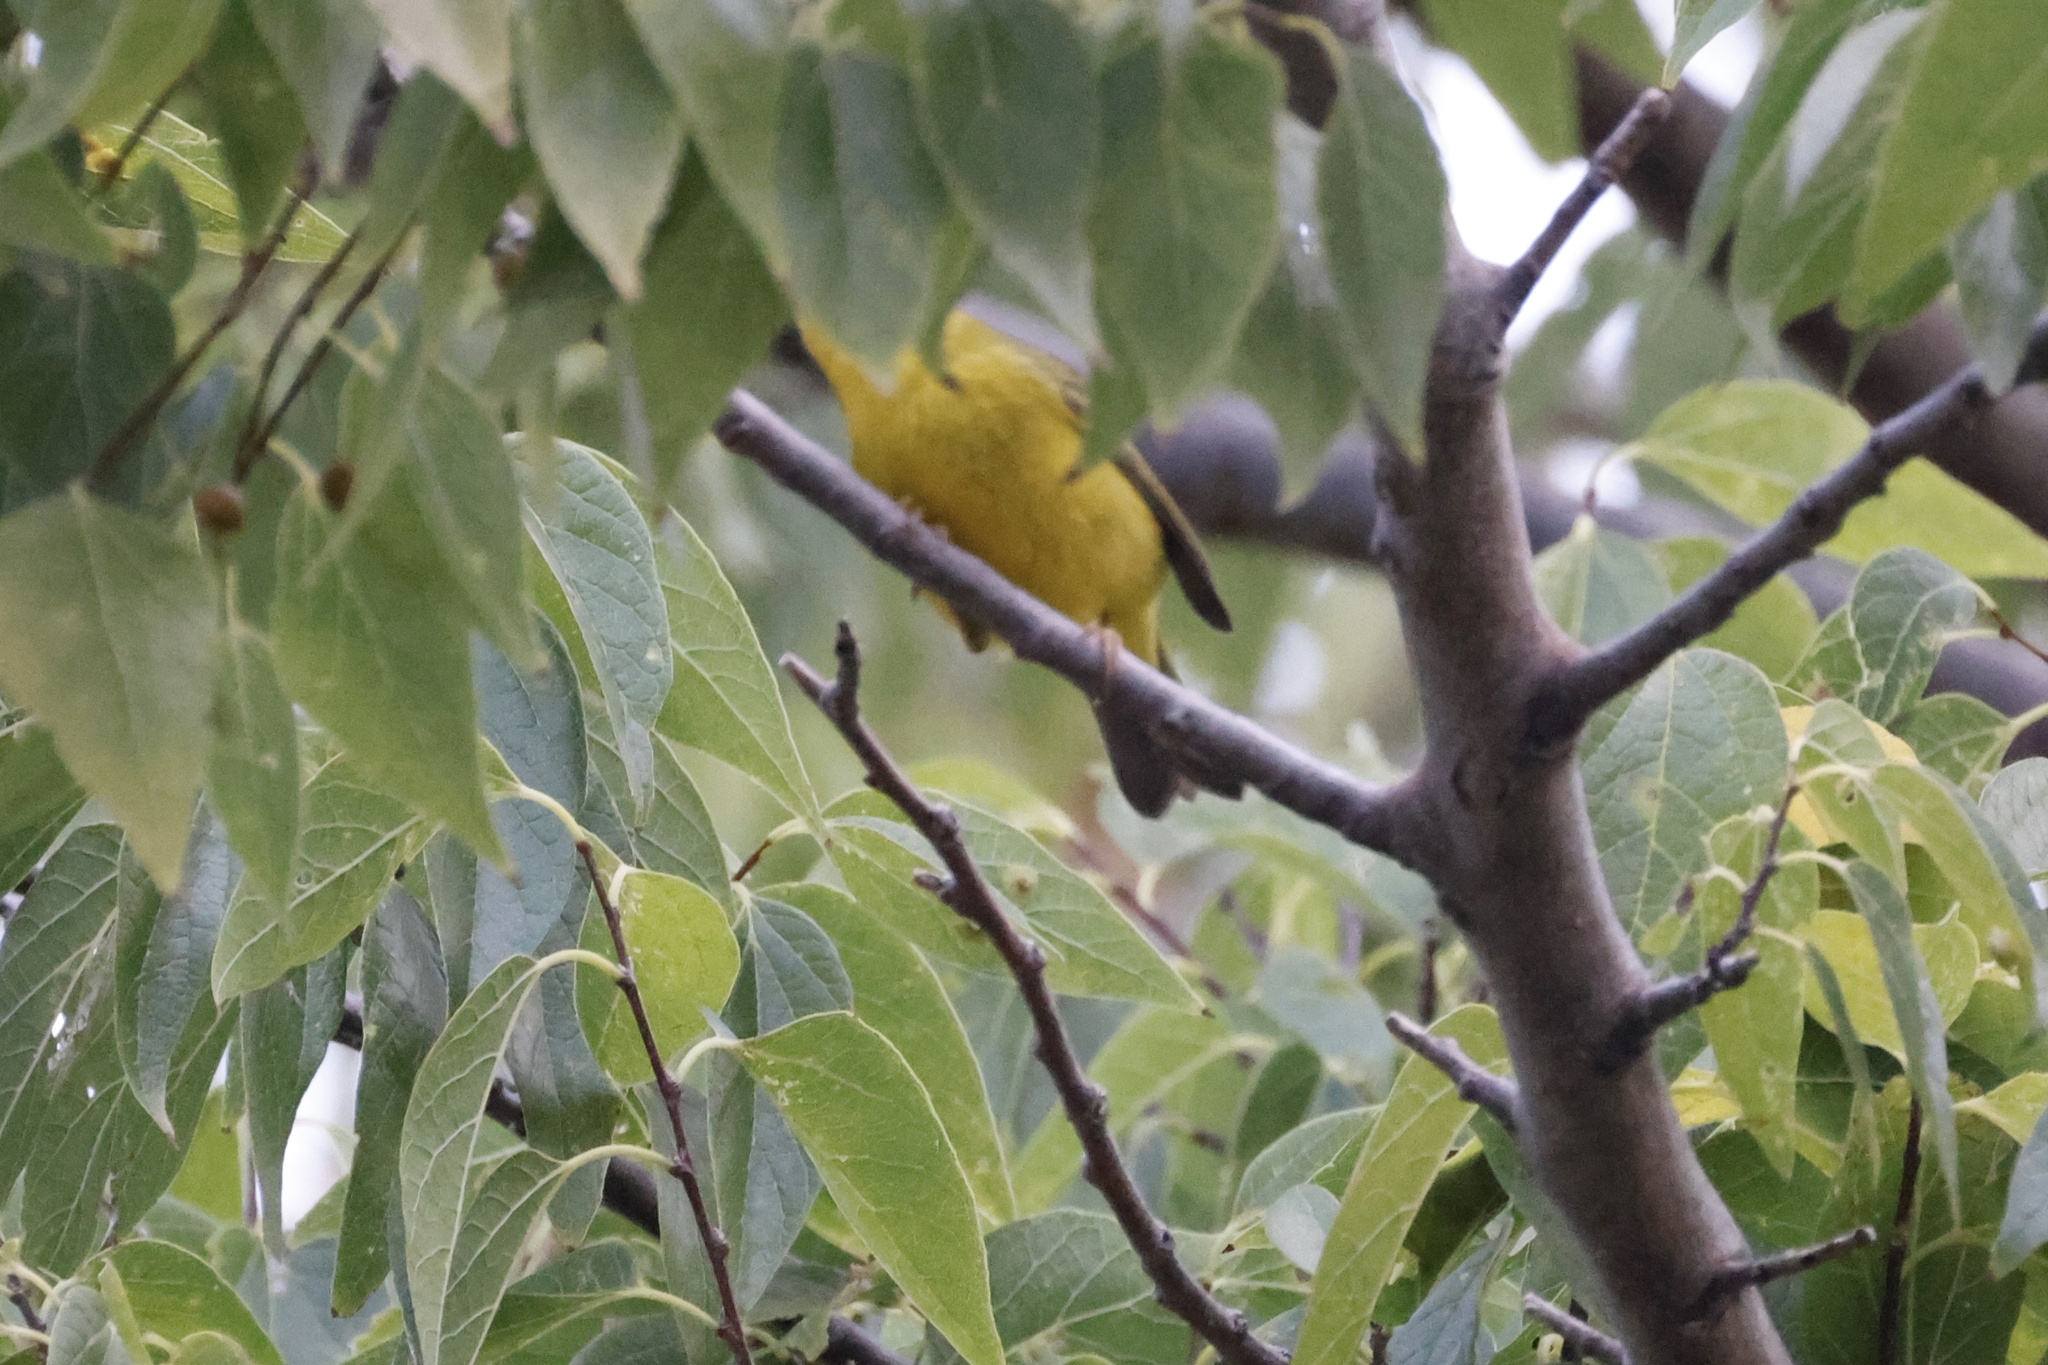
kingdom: Animalia
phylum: Chordata
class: Aves
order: Passeriformes
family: Parulidae
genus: Cardellina
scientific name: Cardellina pusilla
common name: Wilson's warbler
